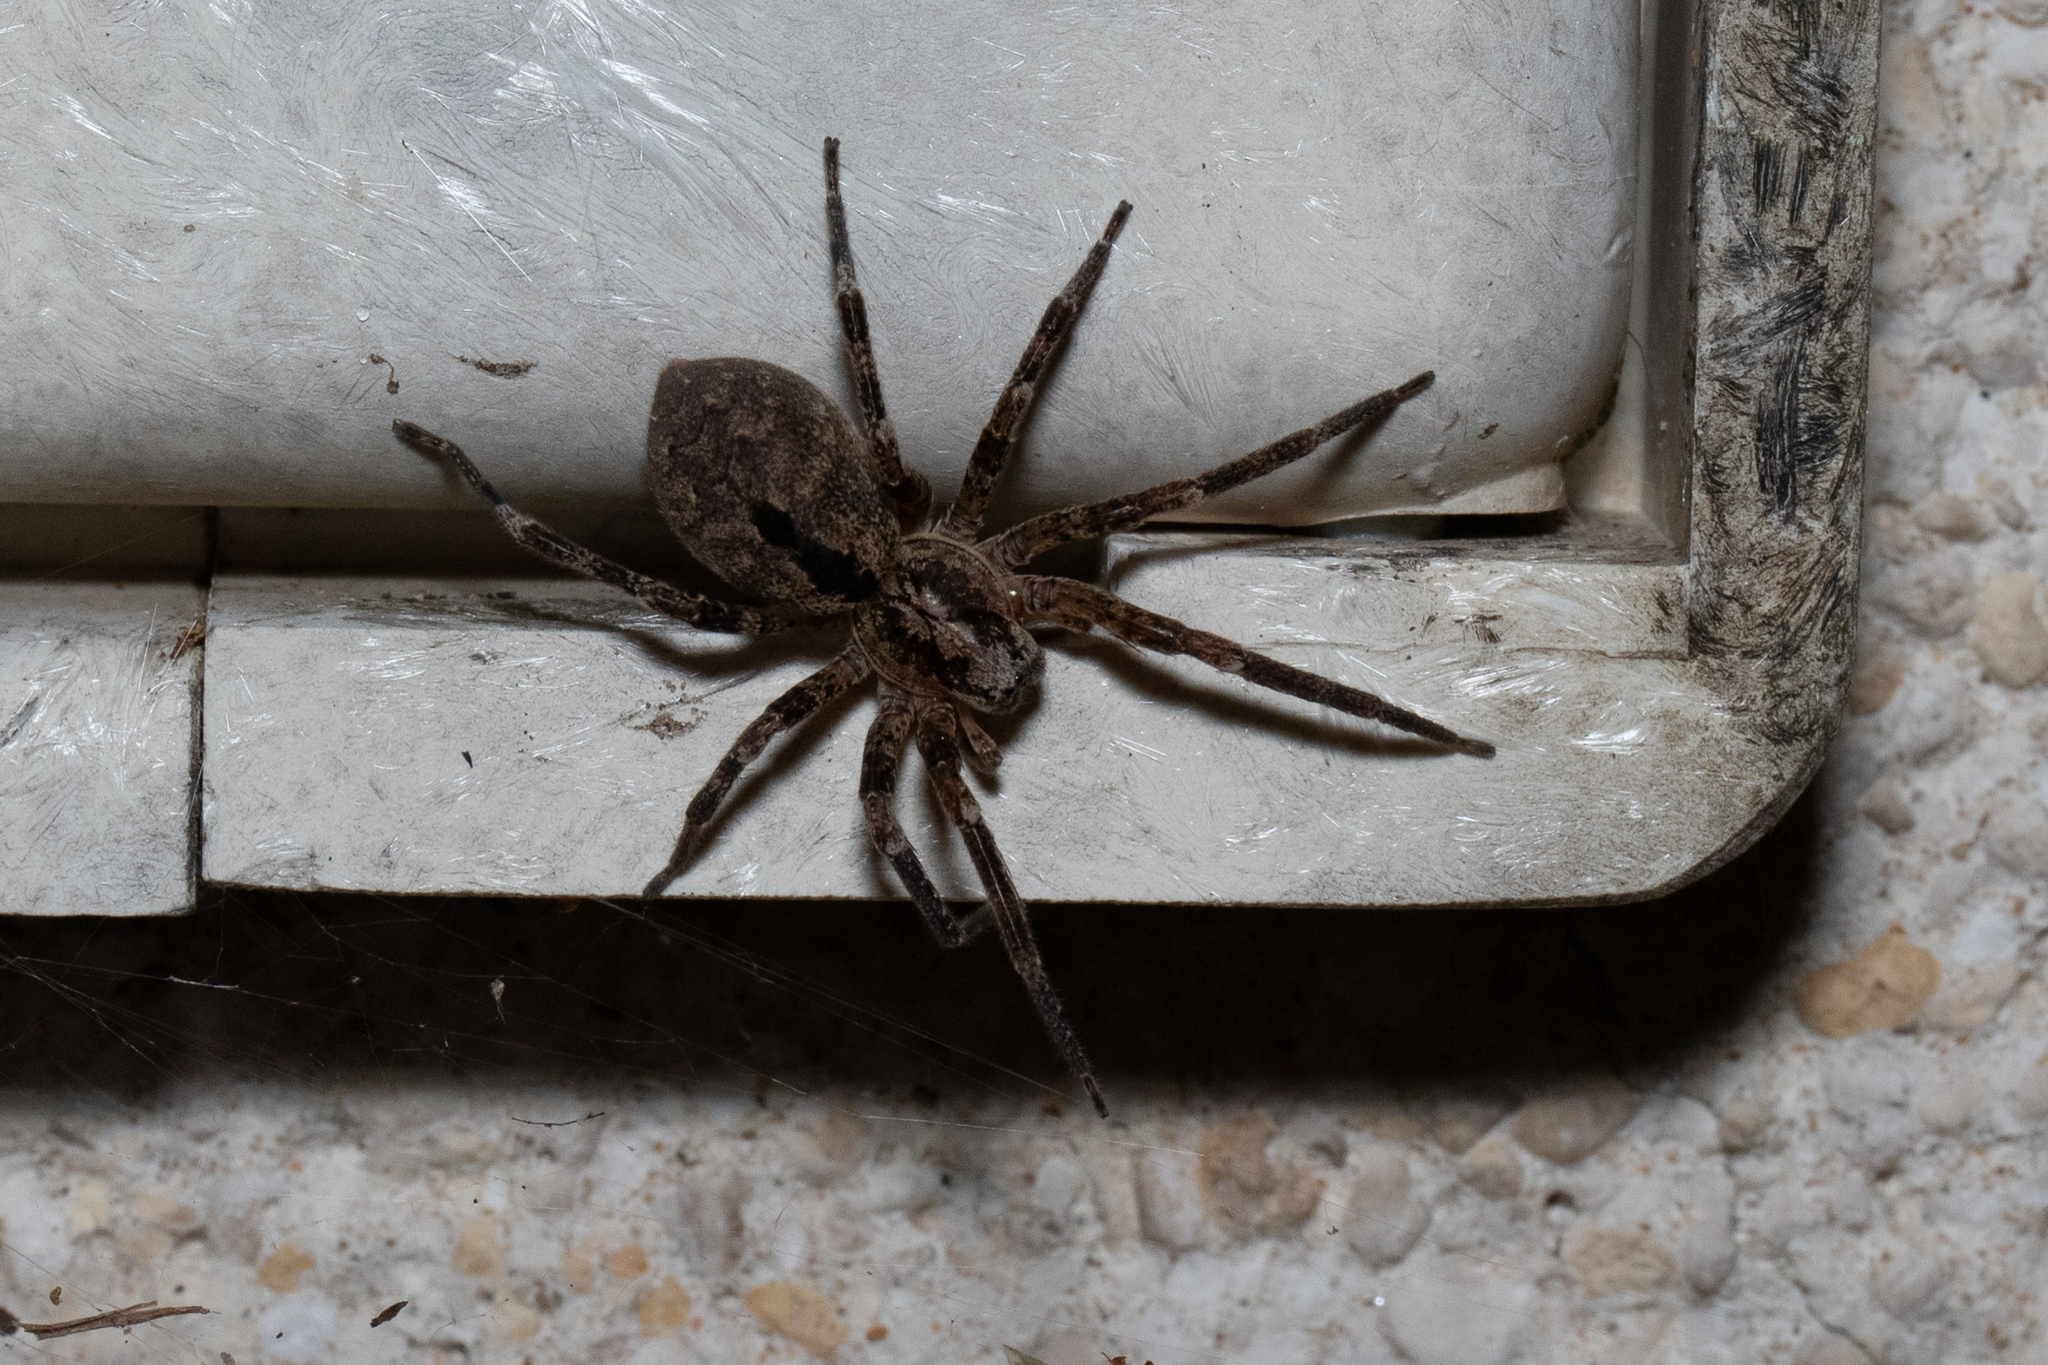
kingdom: Animalia
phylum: Arthropoda
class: Arachnida
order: Araneae
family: Zoropsidae
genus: Zoropsis
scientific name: Zoropsis spinimana
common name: Zoropsid spider
